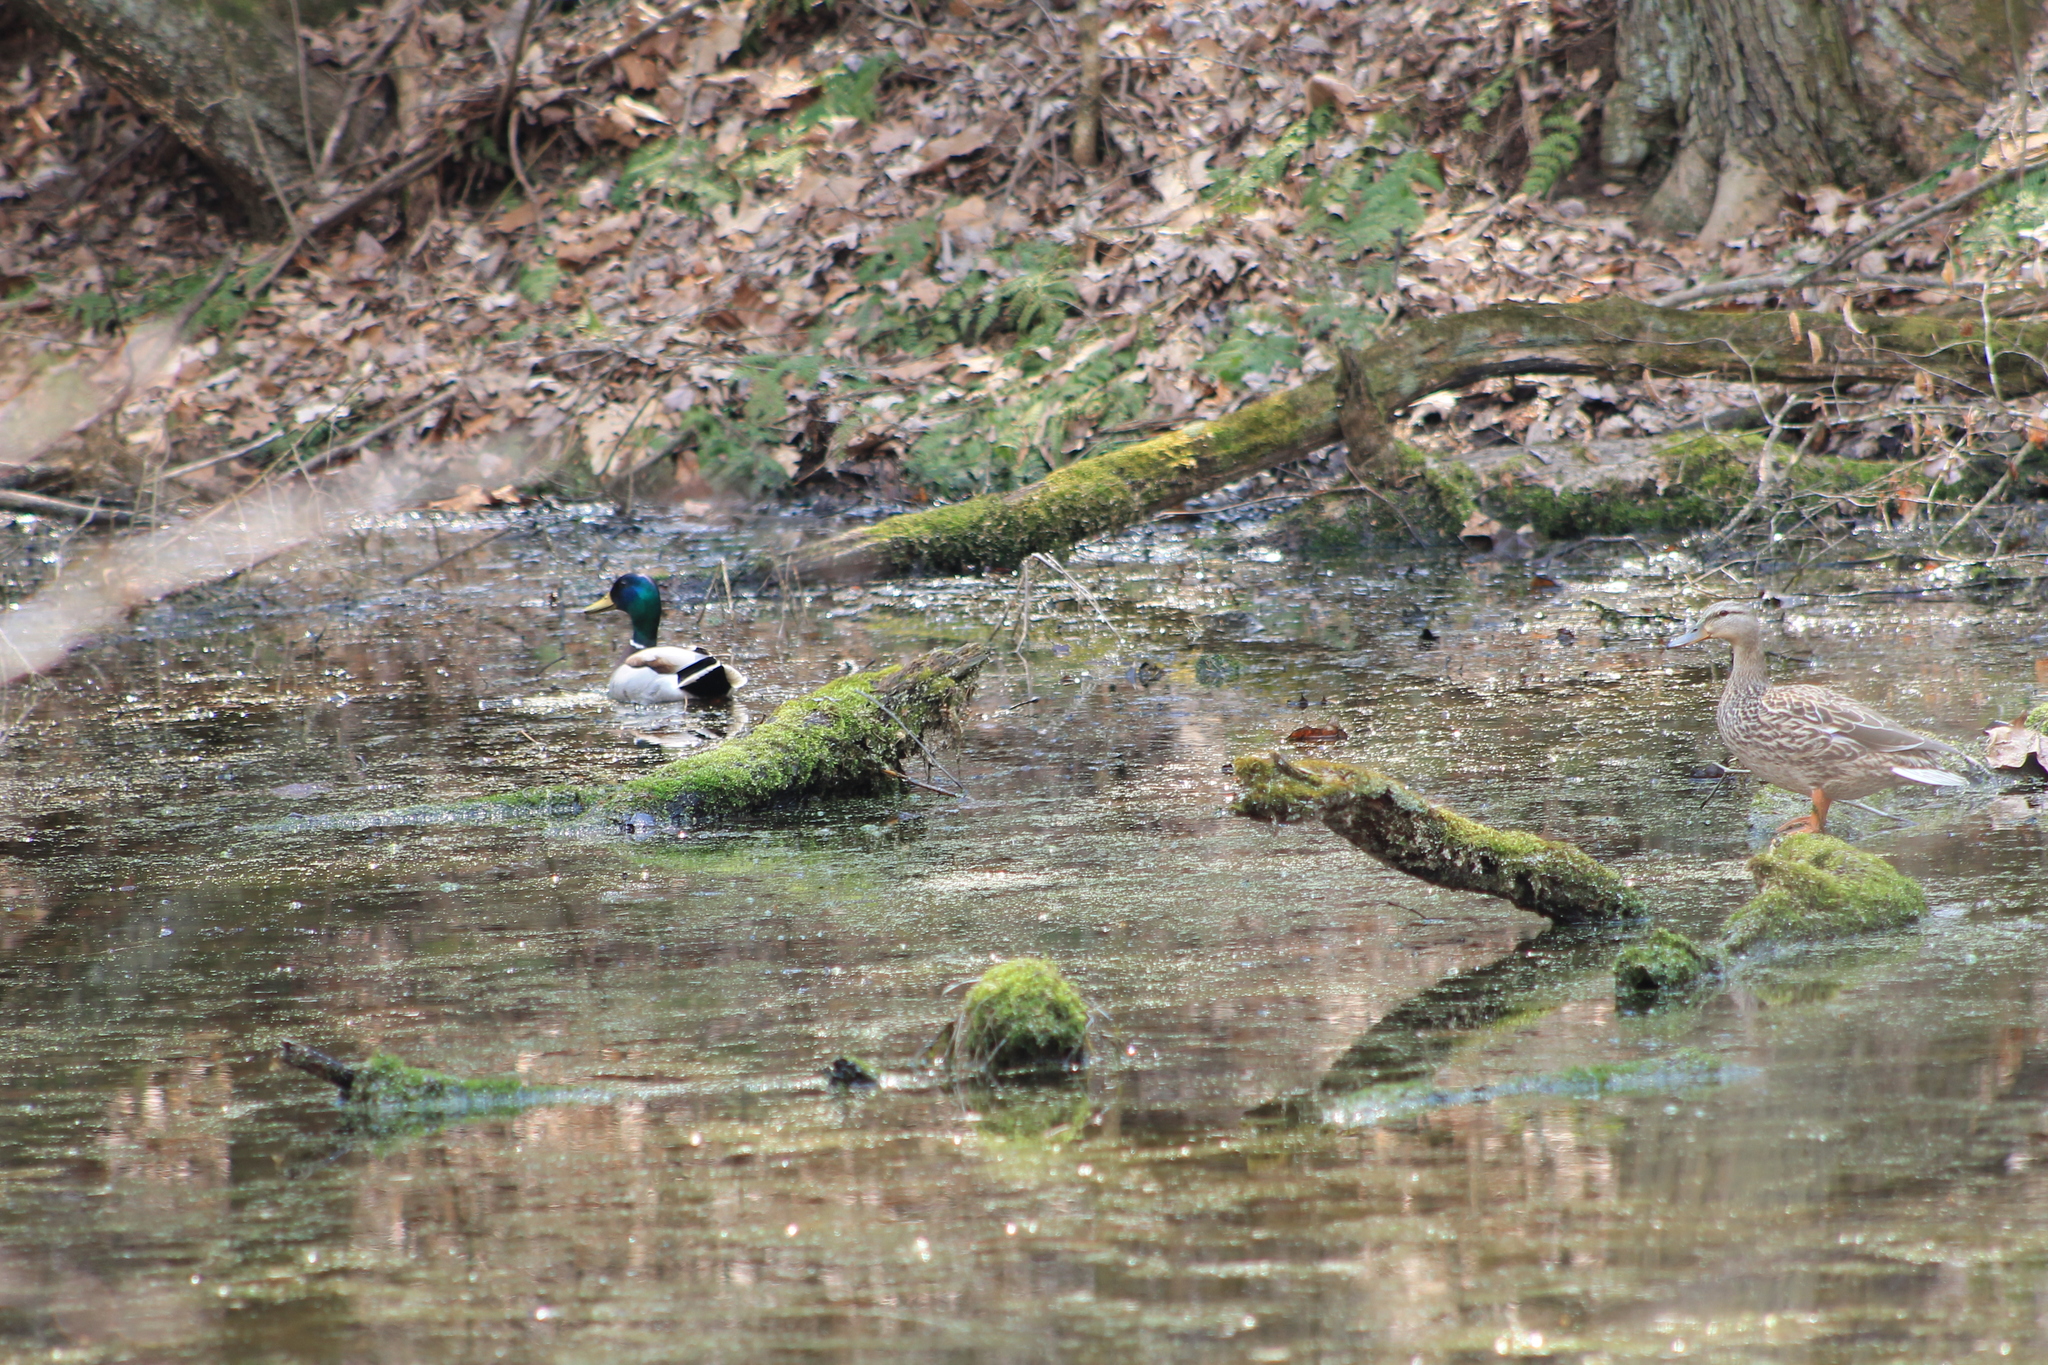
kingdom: Animalia
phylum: Chordata
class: Aves
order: Anseriformes
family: Anatidae
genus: Anas
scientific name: Anas platyrhynchos
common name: Mallard
